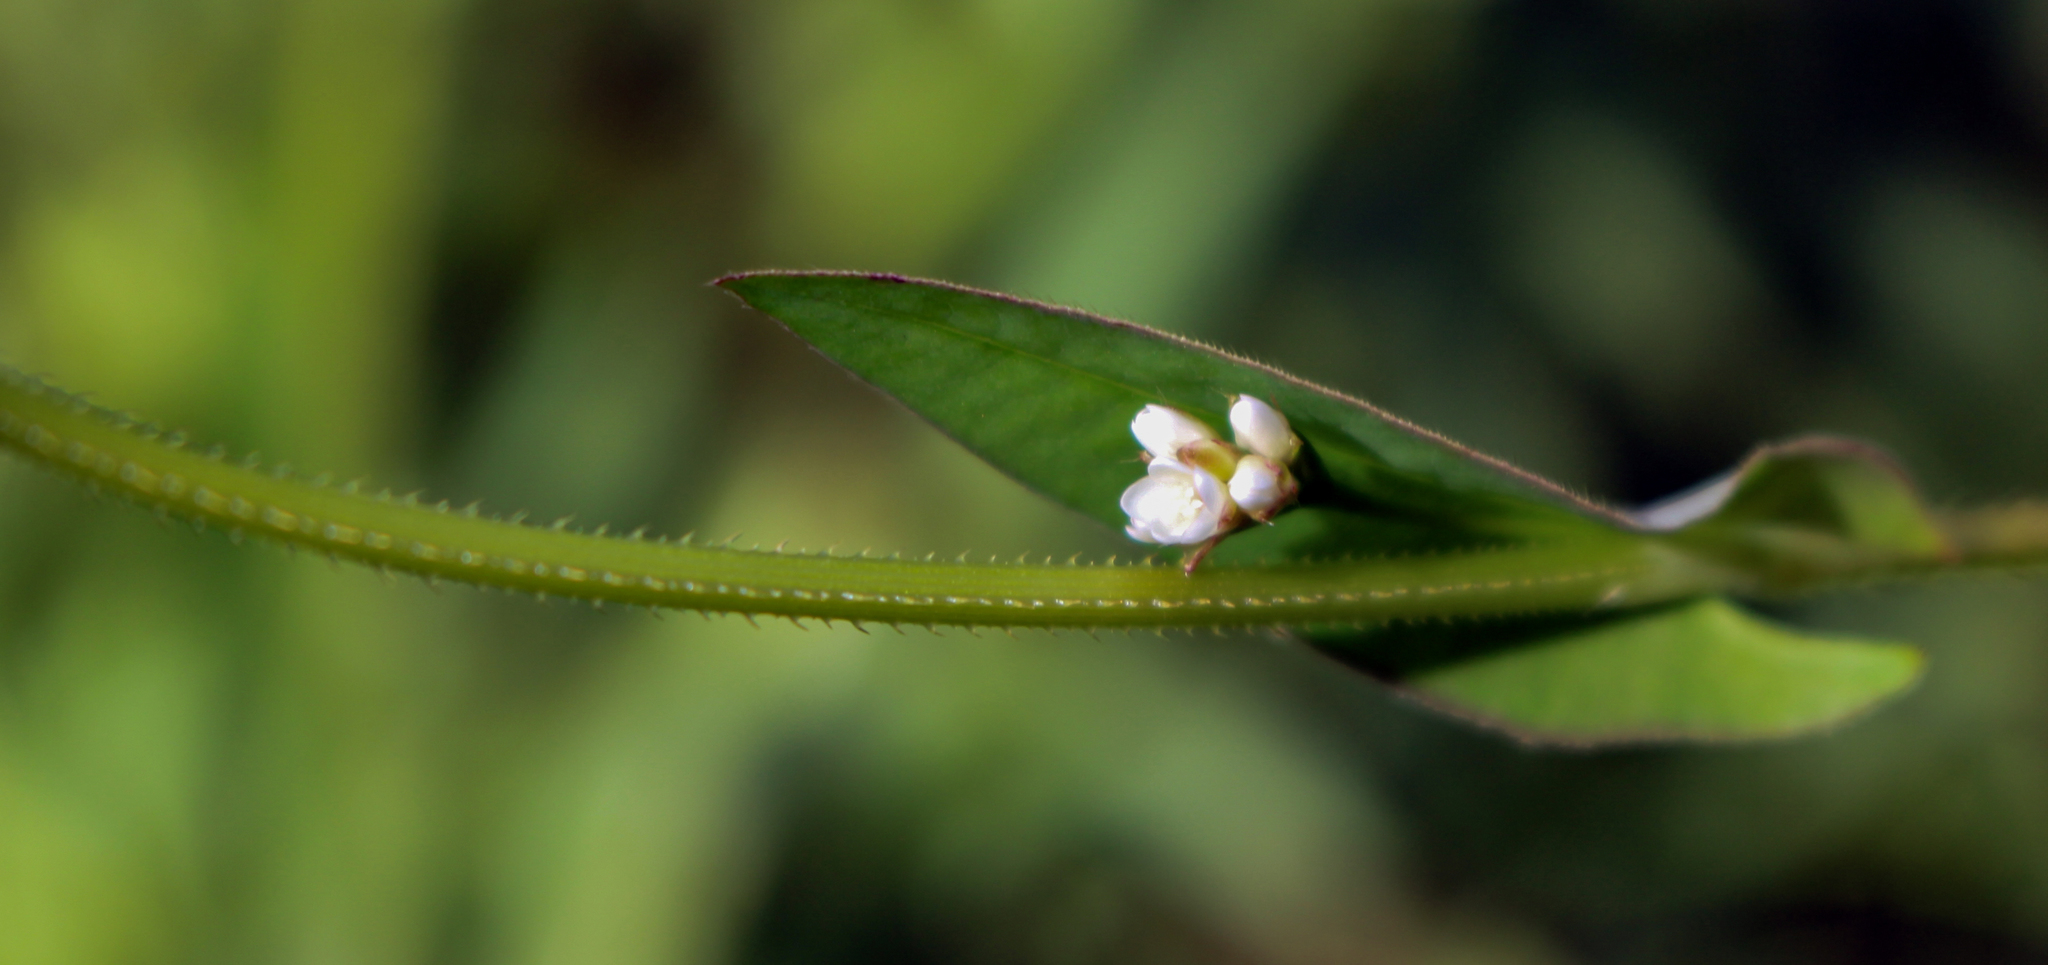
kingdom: Plantae
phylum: Tracheophyta
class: Magnoliopsida
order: Caryophyllales
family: Polygonaceae
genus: Persicaria
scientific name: Persicaria sagittata
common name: American tearthumb
